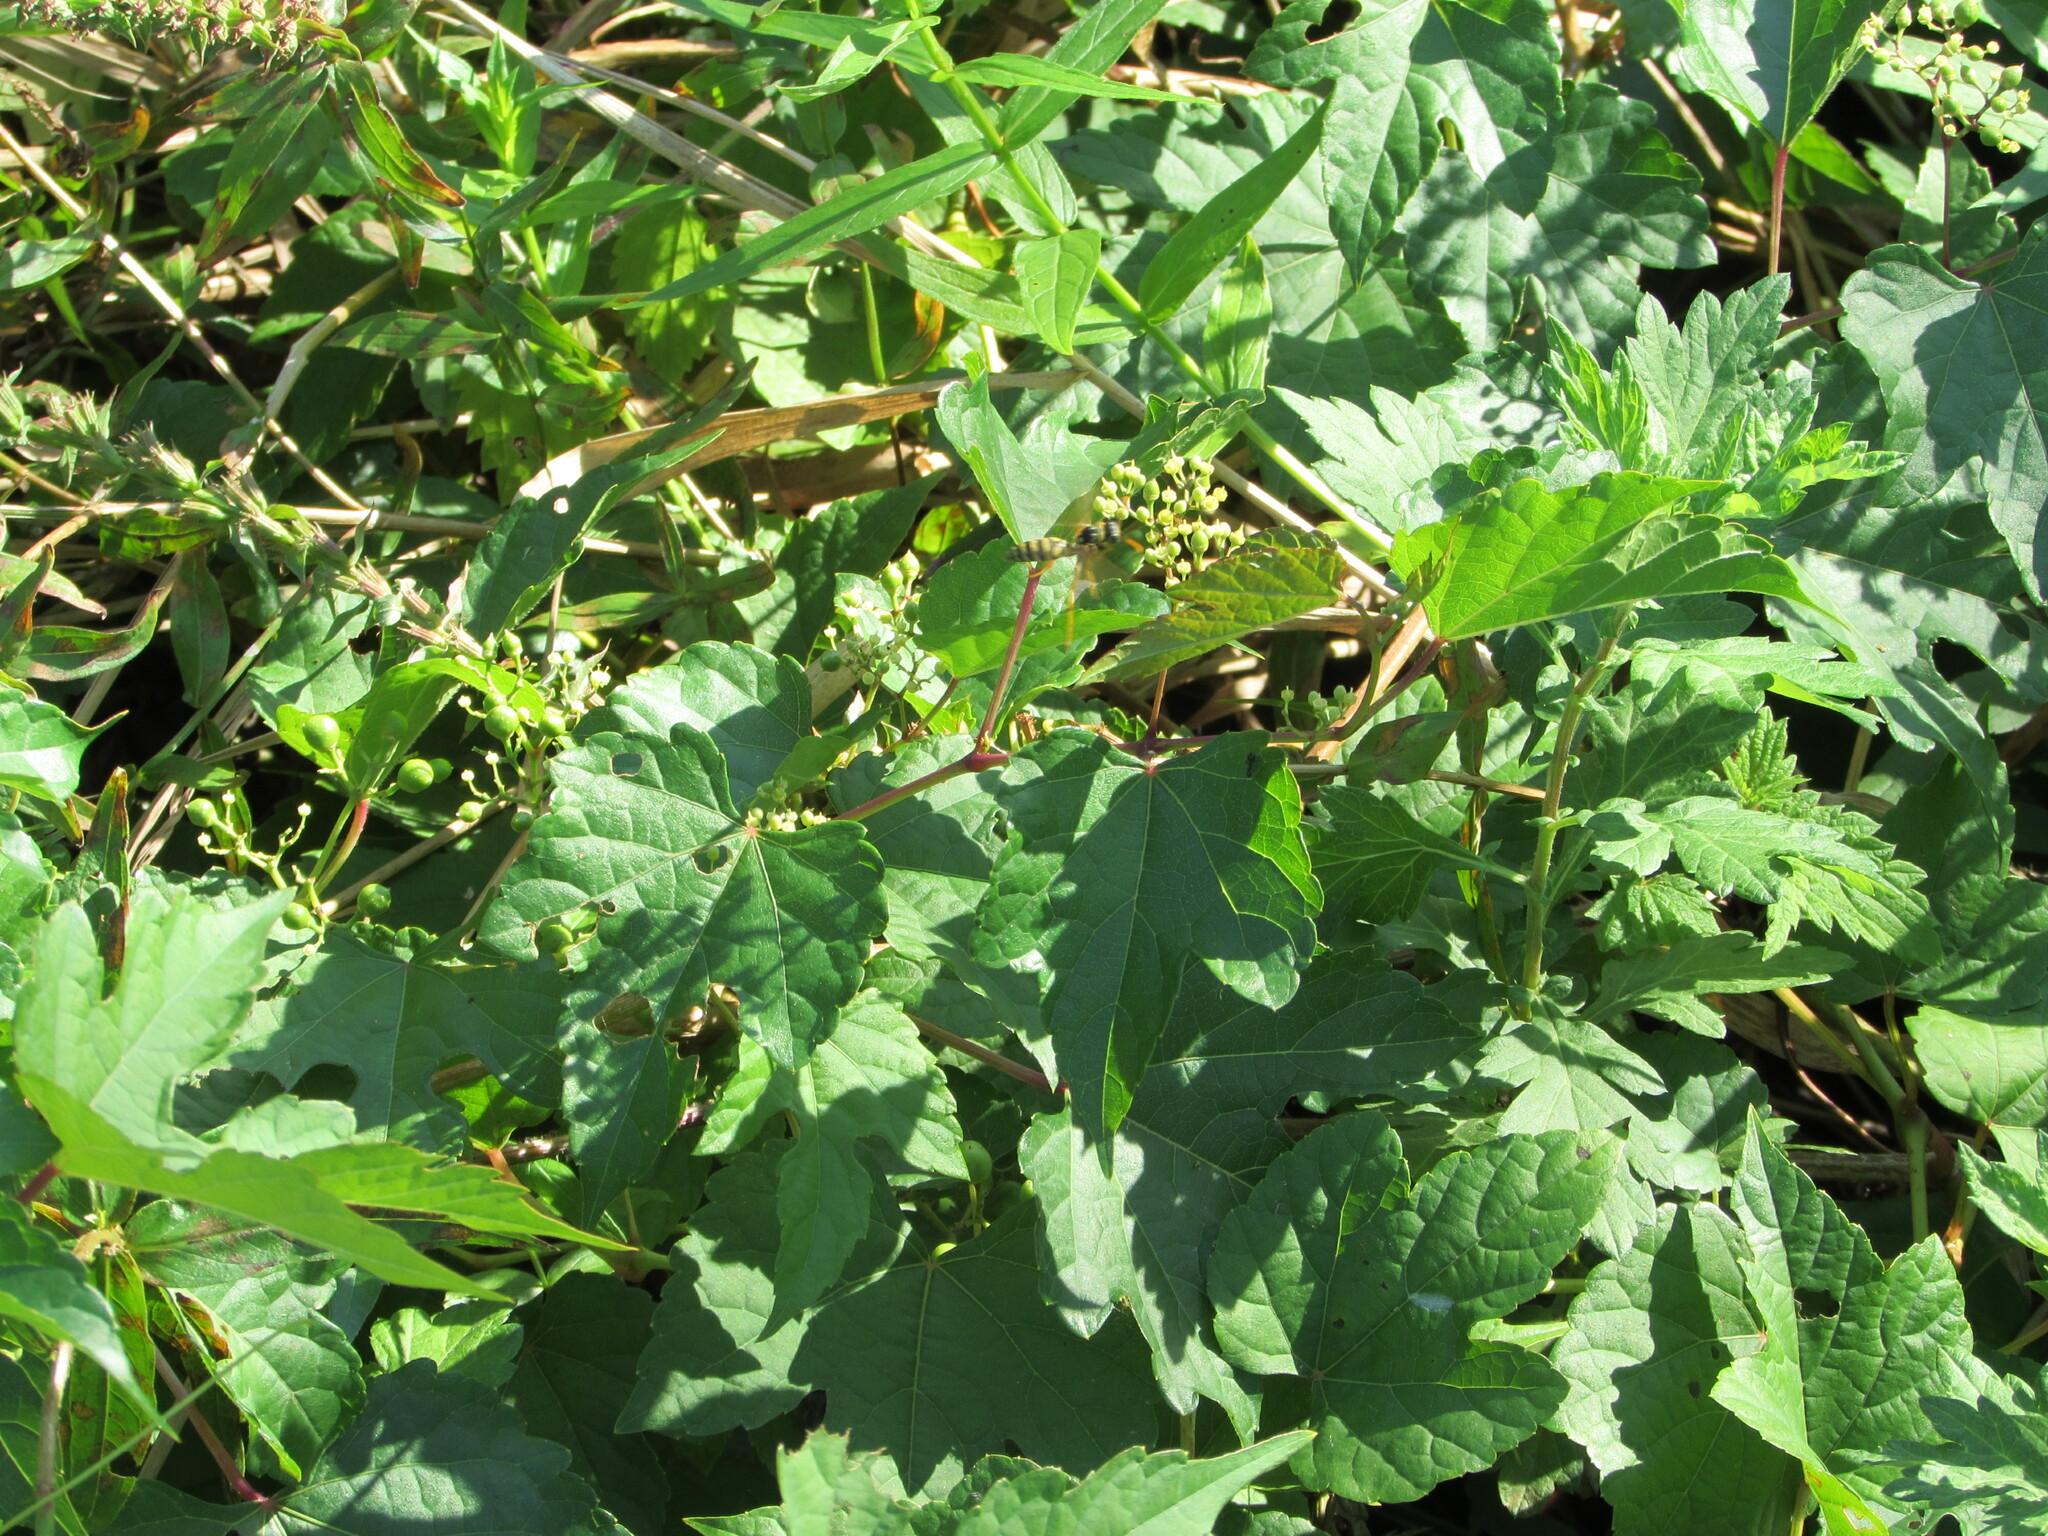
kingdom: Animalia
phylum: Arthropoda
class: Insecta
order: Hymenoptera
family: Eumenidae
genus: Polistes
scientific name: Polistes dominula
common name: Paper wasp
